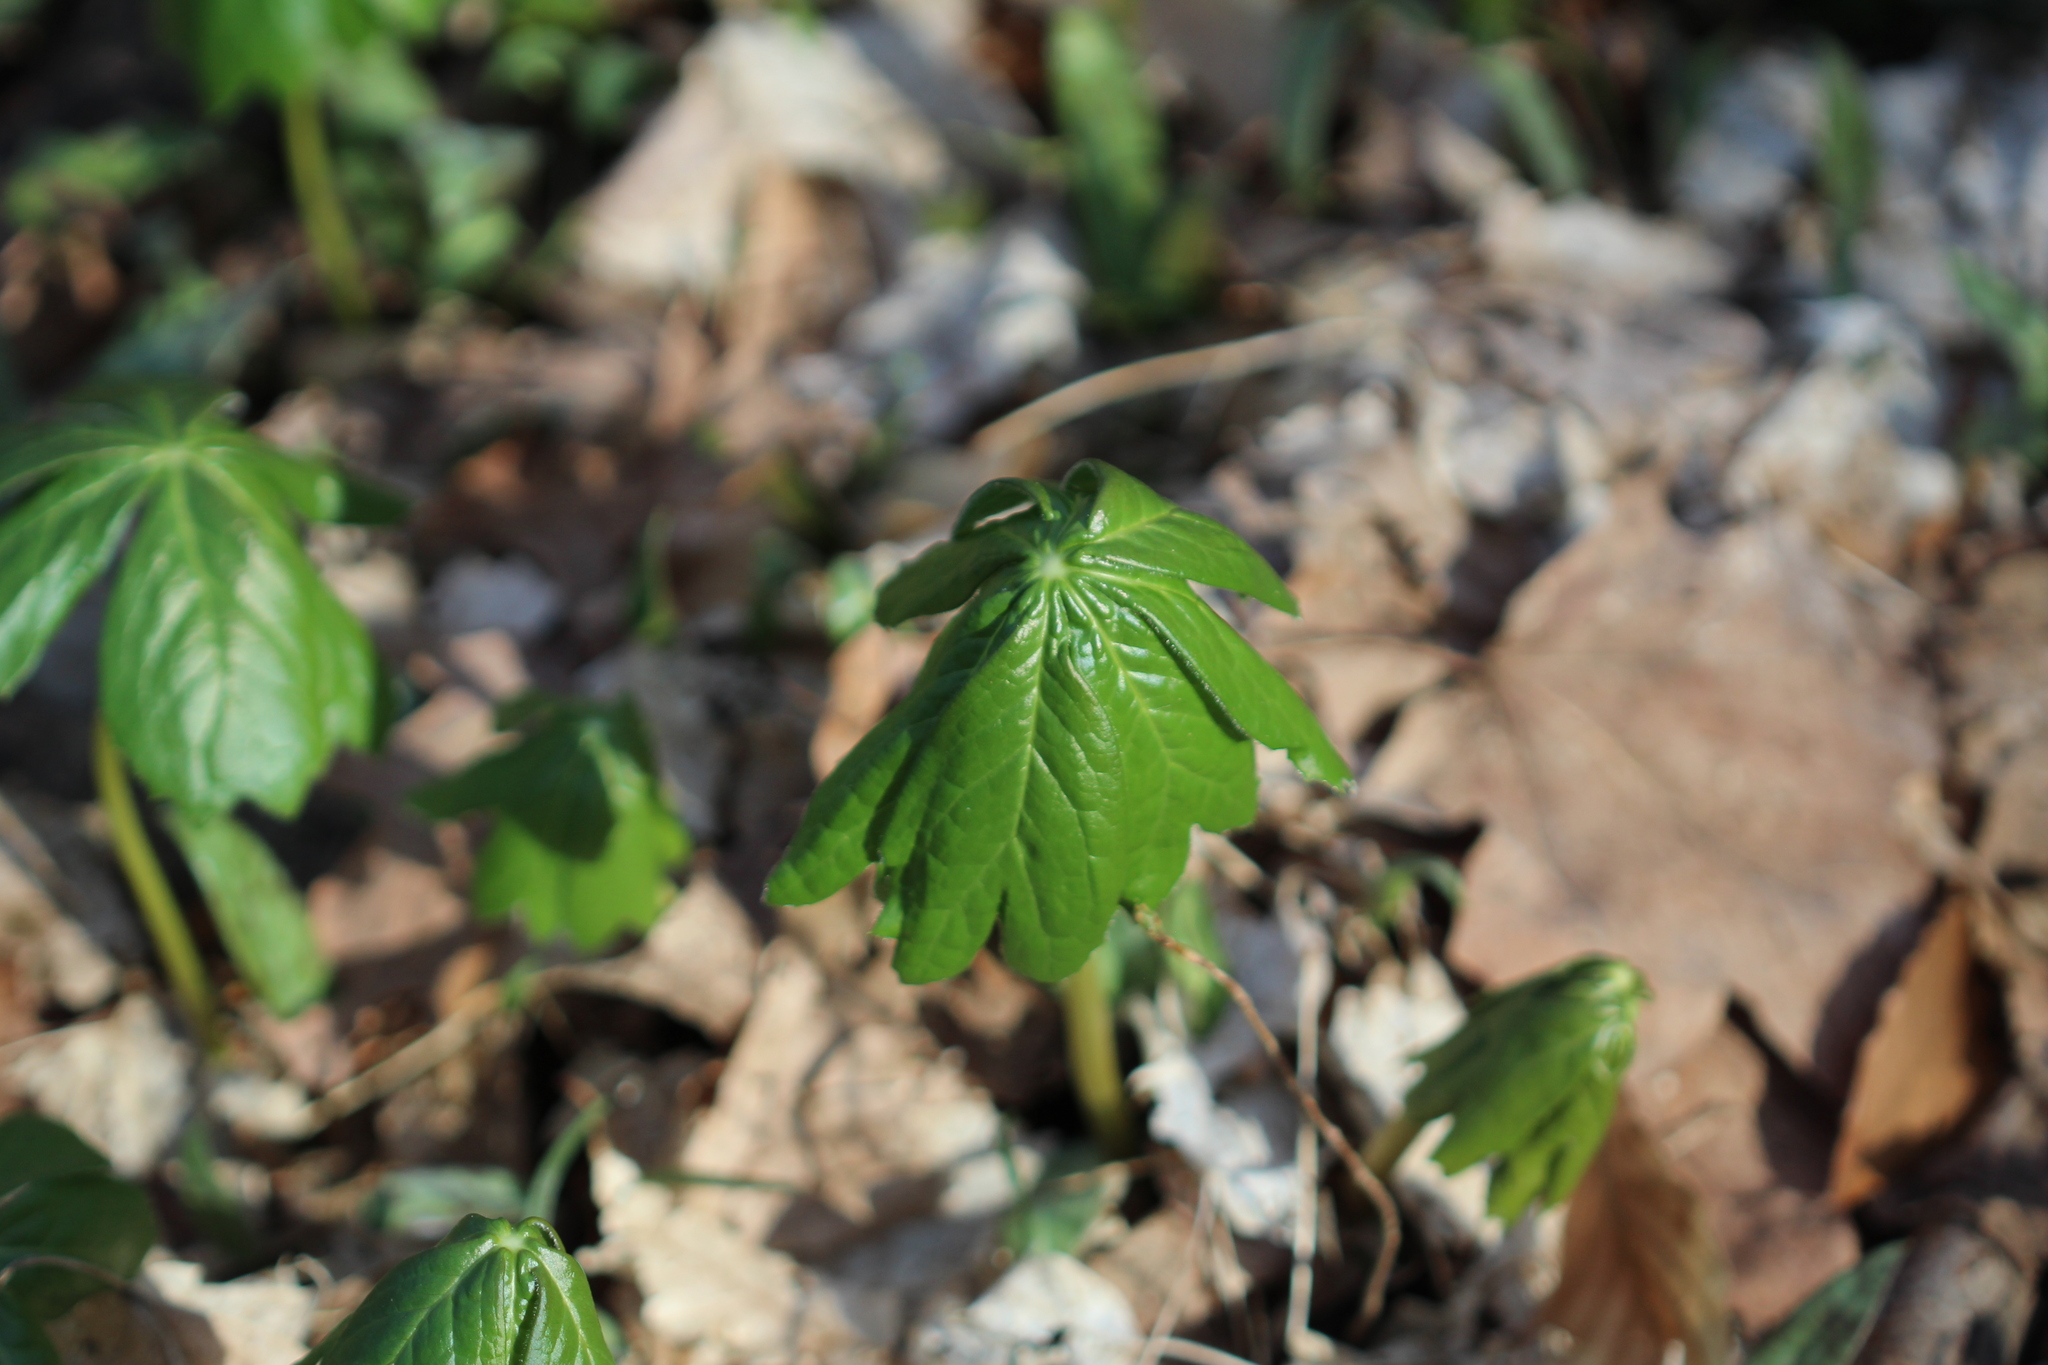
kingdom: Plantae
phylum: Tracheophyta
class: Magnoliopsida
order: Ranunculales
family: Berberidaceae
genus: Podophyllum
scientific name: Podophyllum peltatum
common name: Wild mandrake
